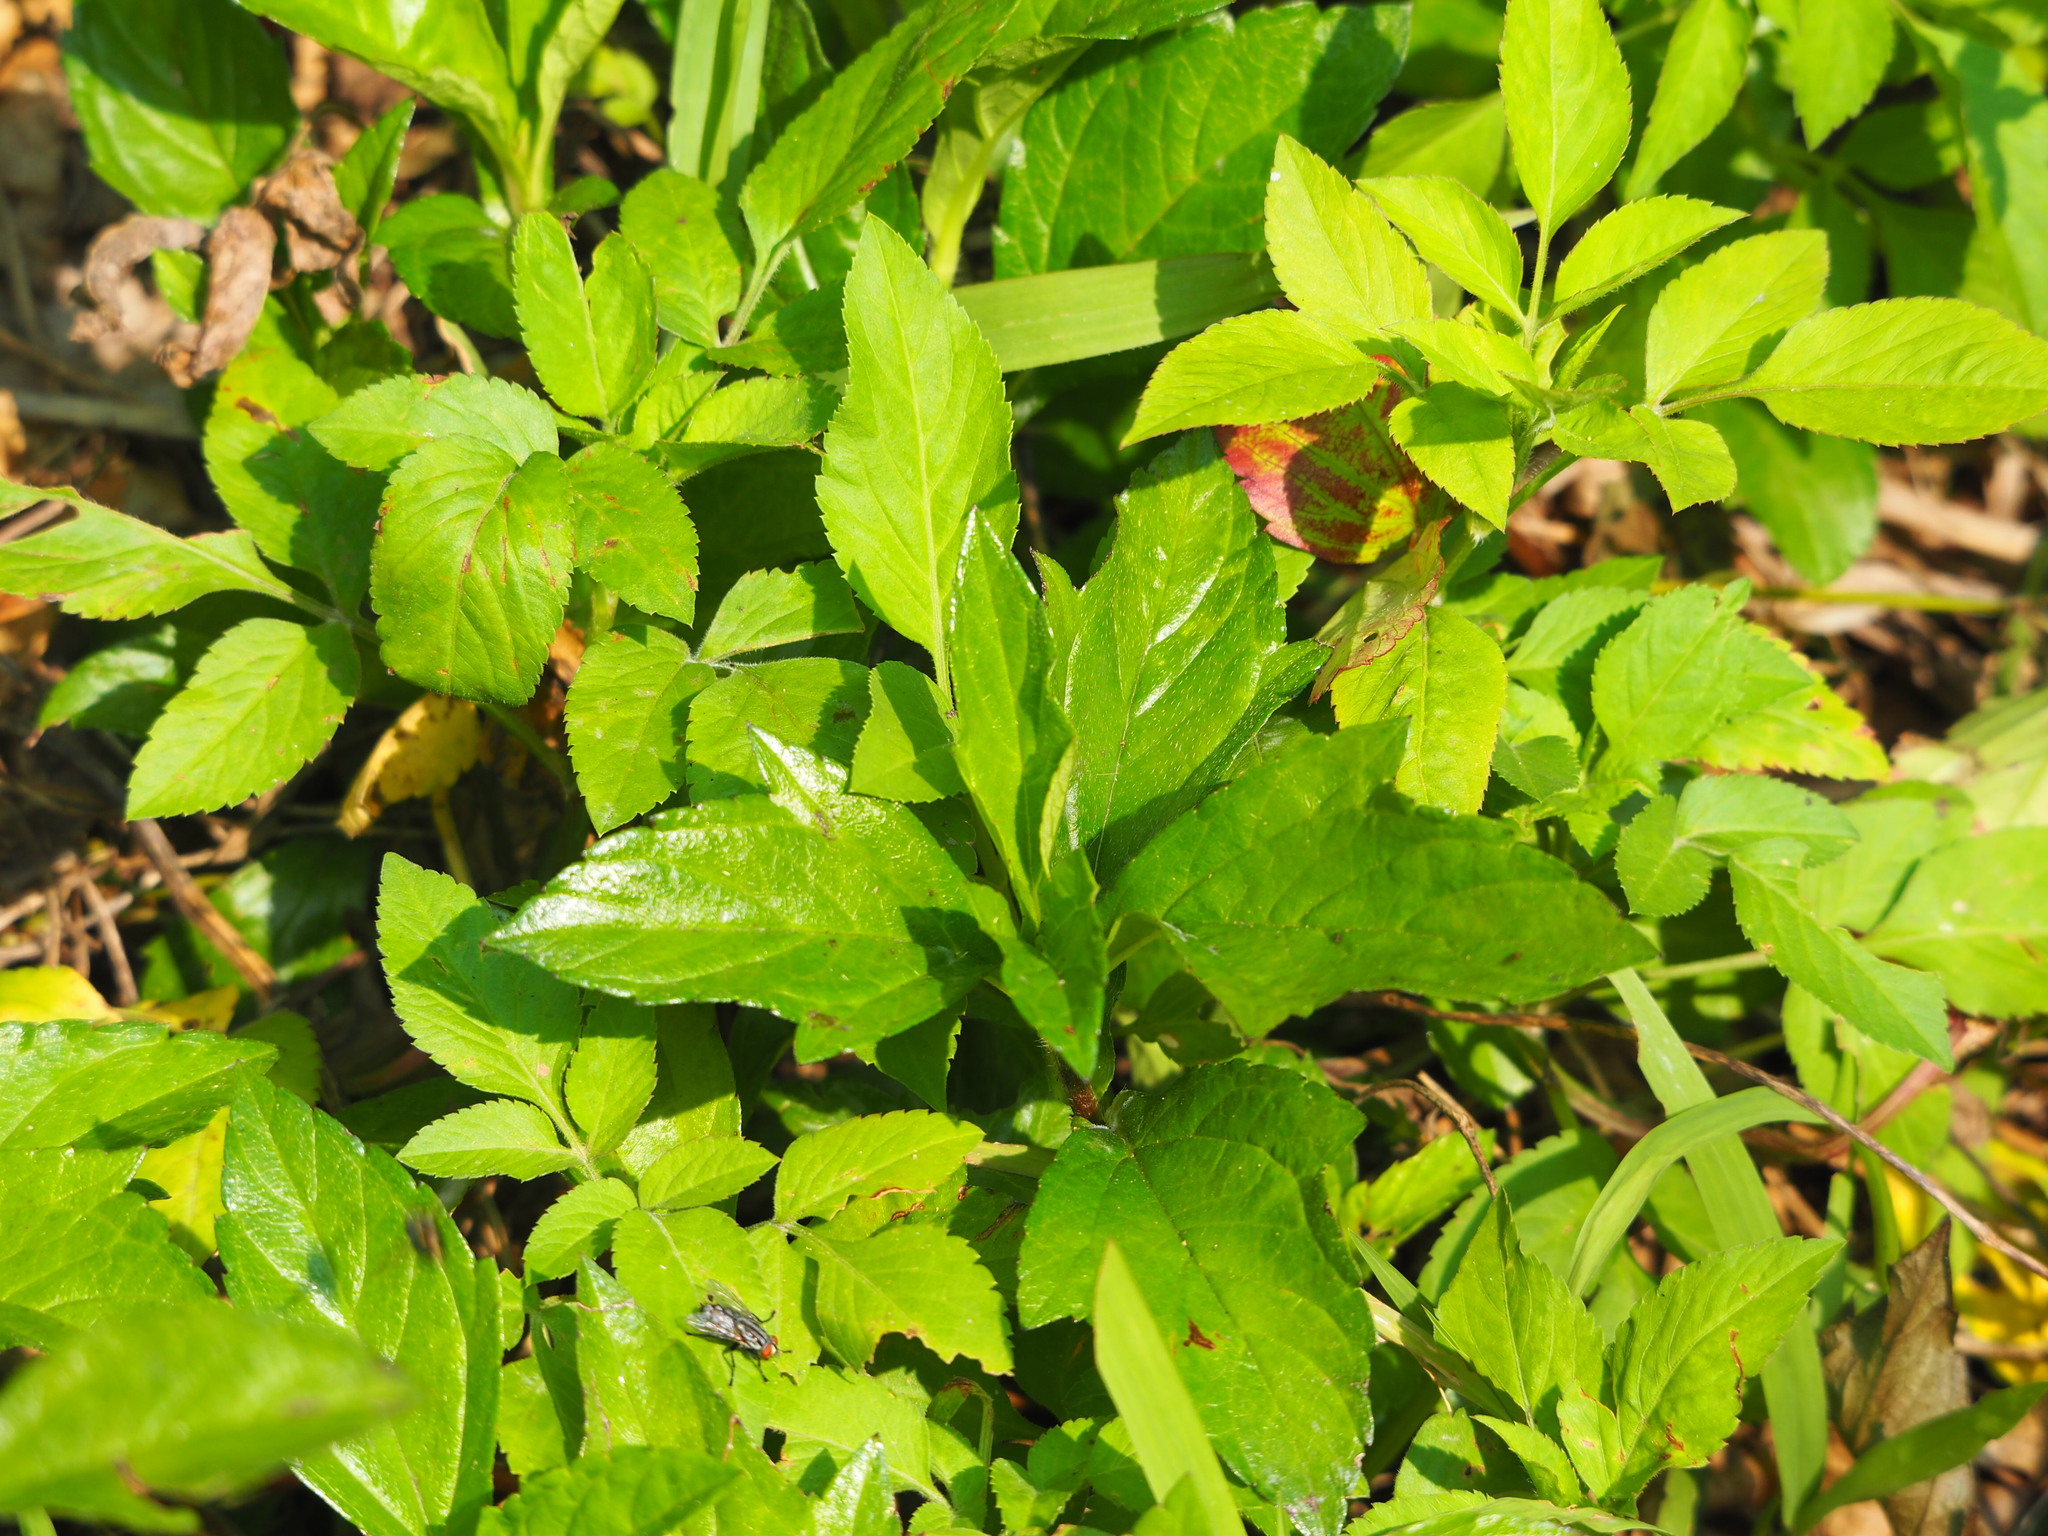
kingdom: Plantae
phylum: Tracheophyta
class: Magnoliopsida
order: Asterales
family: Asteraceae
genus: Sphagneticola
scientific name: Sphagneticola trilobata
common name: Bay biscayne creeping-oxeye
